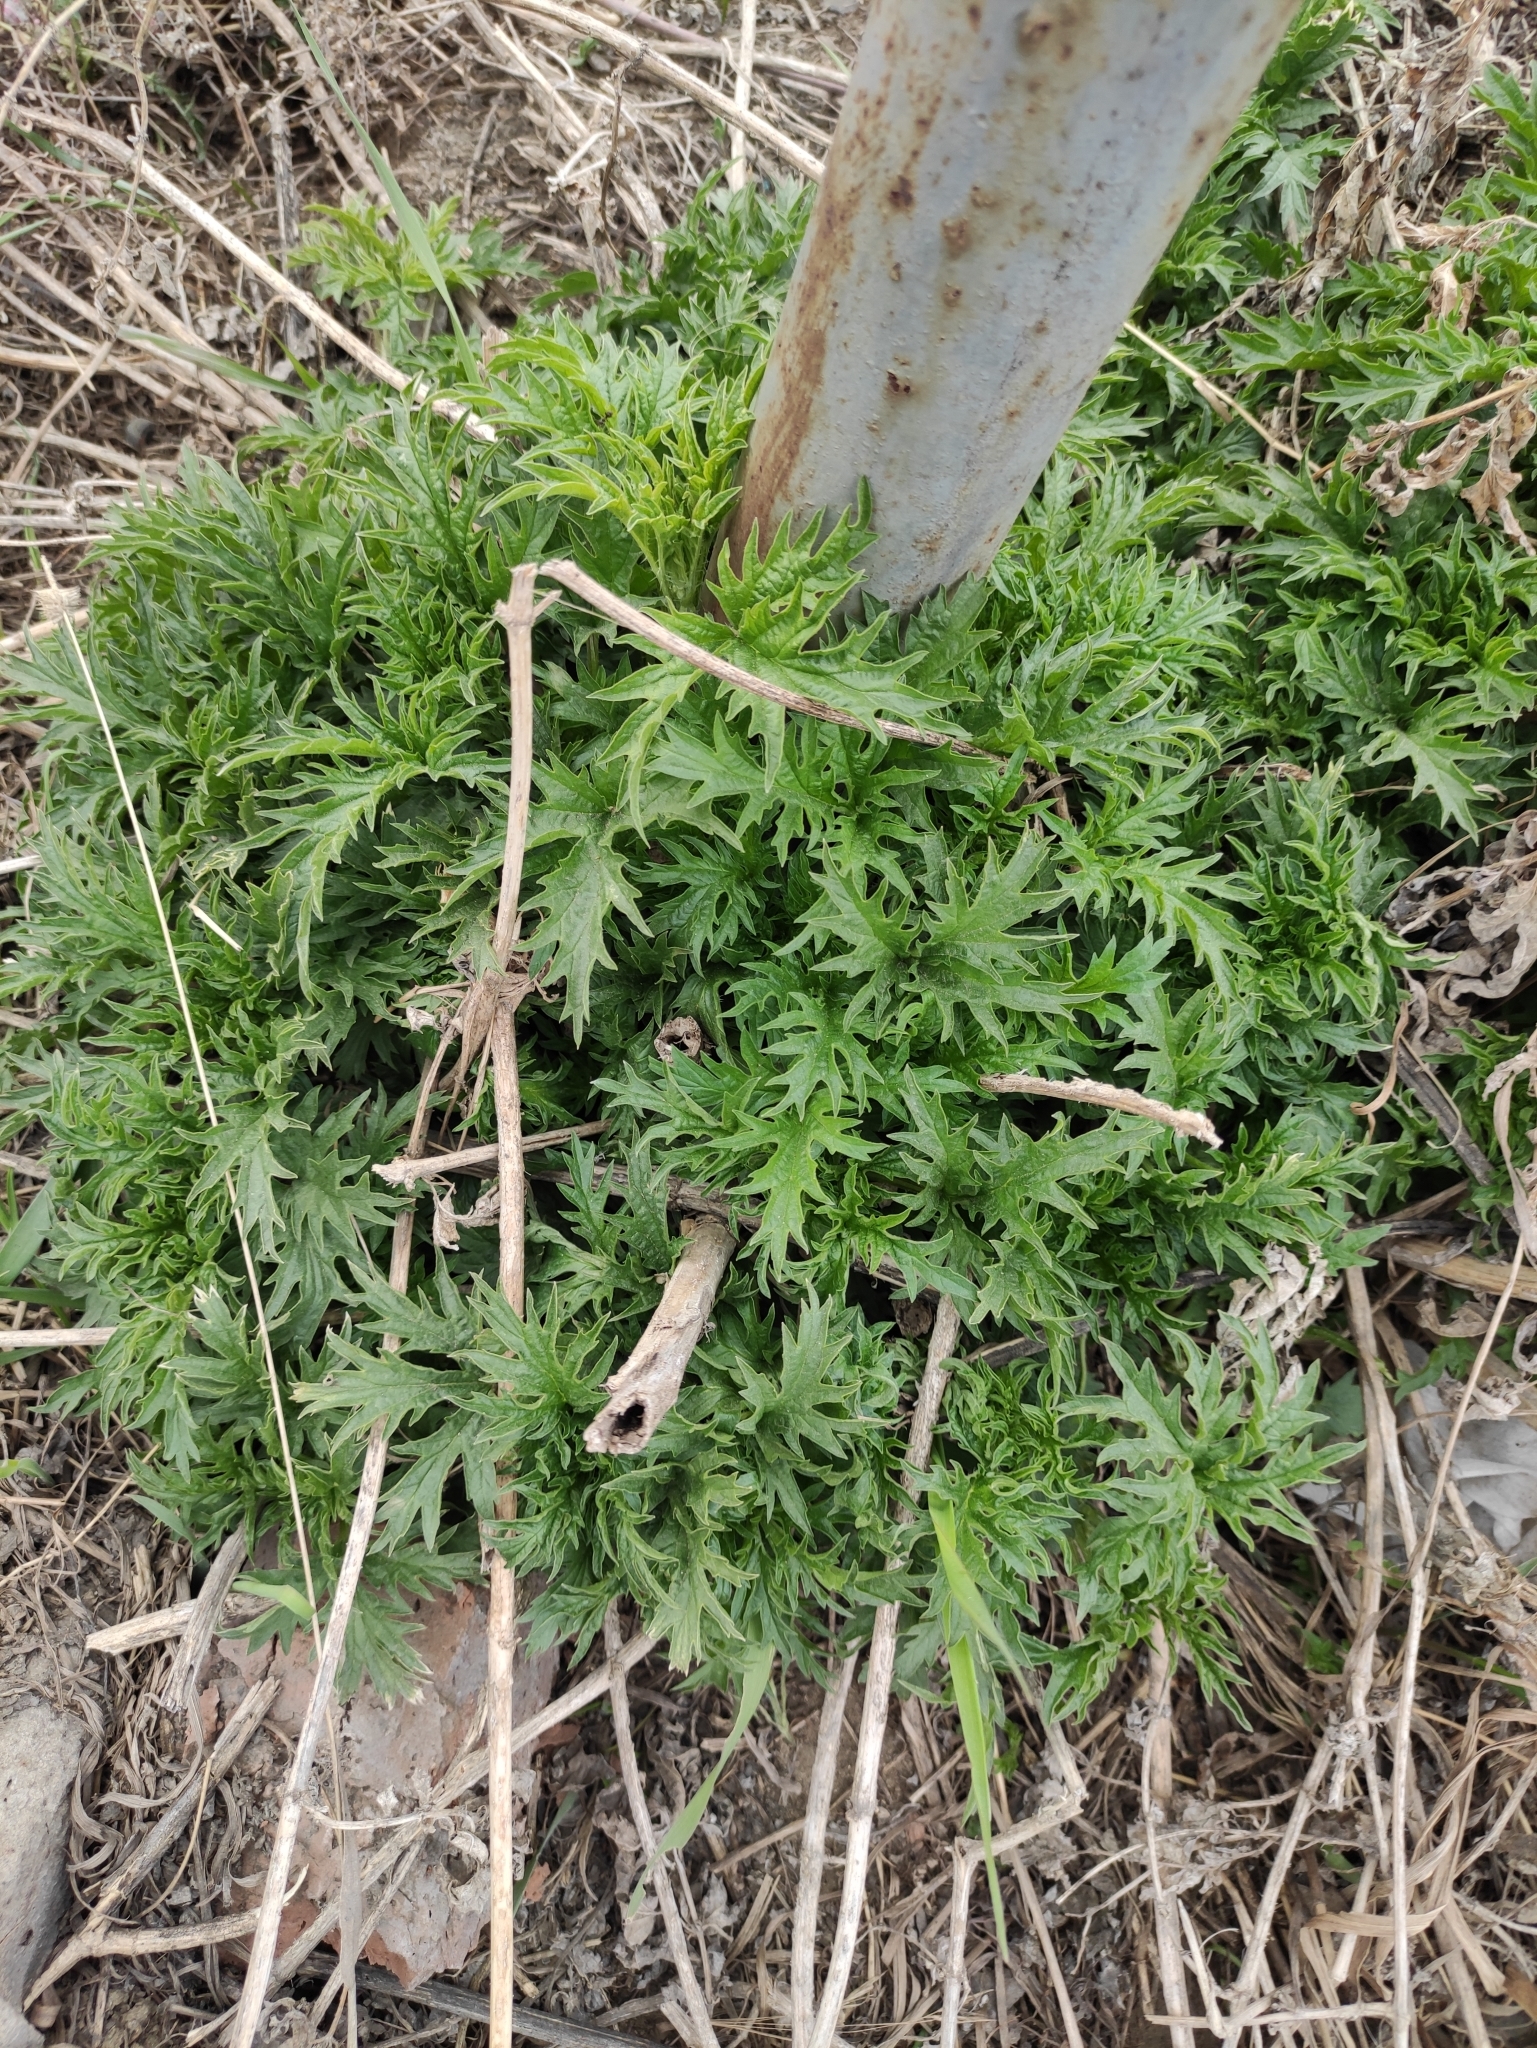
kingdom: Plantae
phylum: Tracheophyta
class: Magnoliopsida
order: Rosales
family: Urticaceae
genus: Urtica
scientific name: Urtica cannabina
